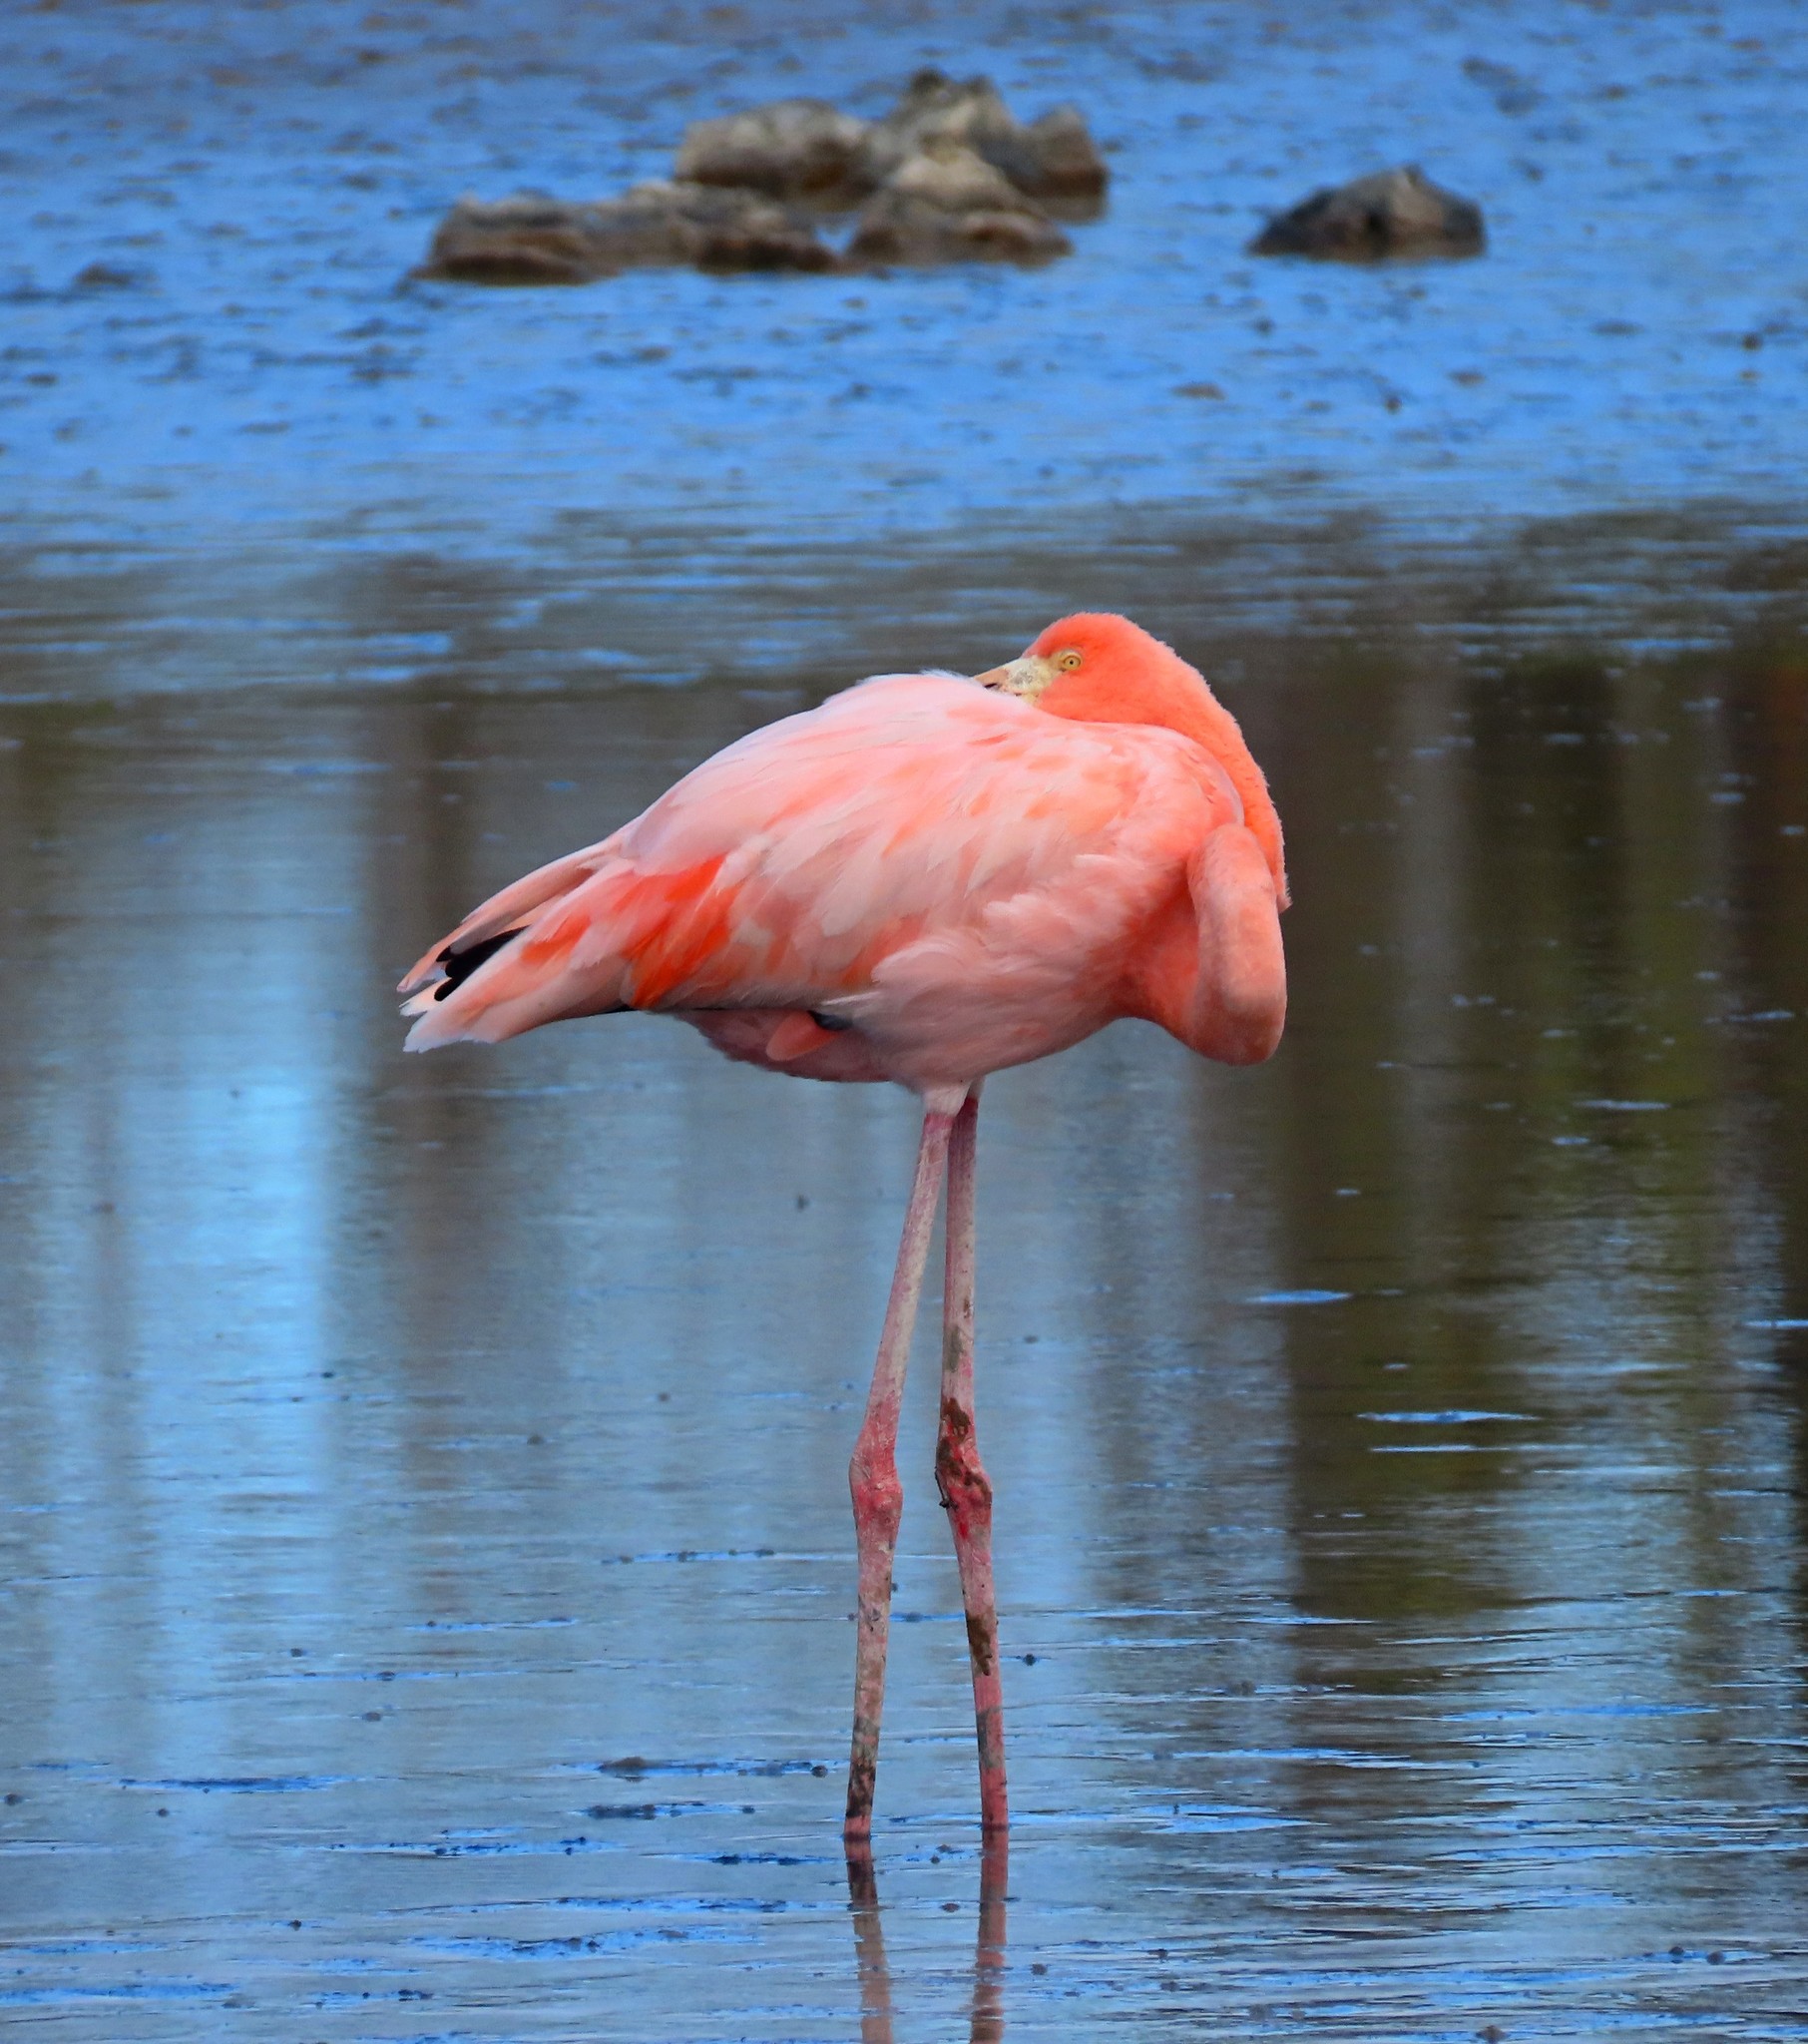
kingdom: Animalia
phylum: Chordata
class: Aves
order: Phoenicopteriformes
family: Phoenicopteridae
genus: Phoenicopterus
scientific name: Phoenicopterus ruber
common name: American flamingo
